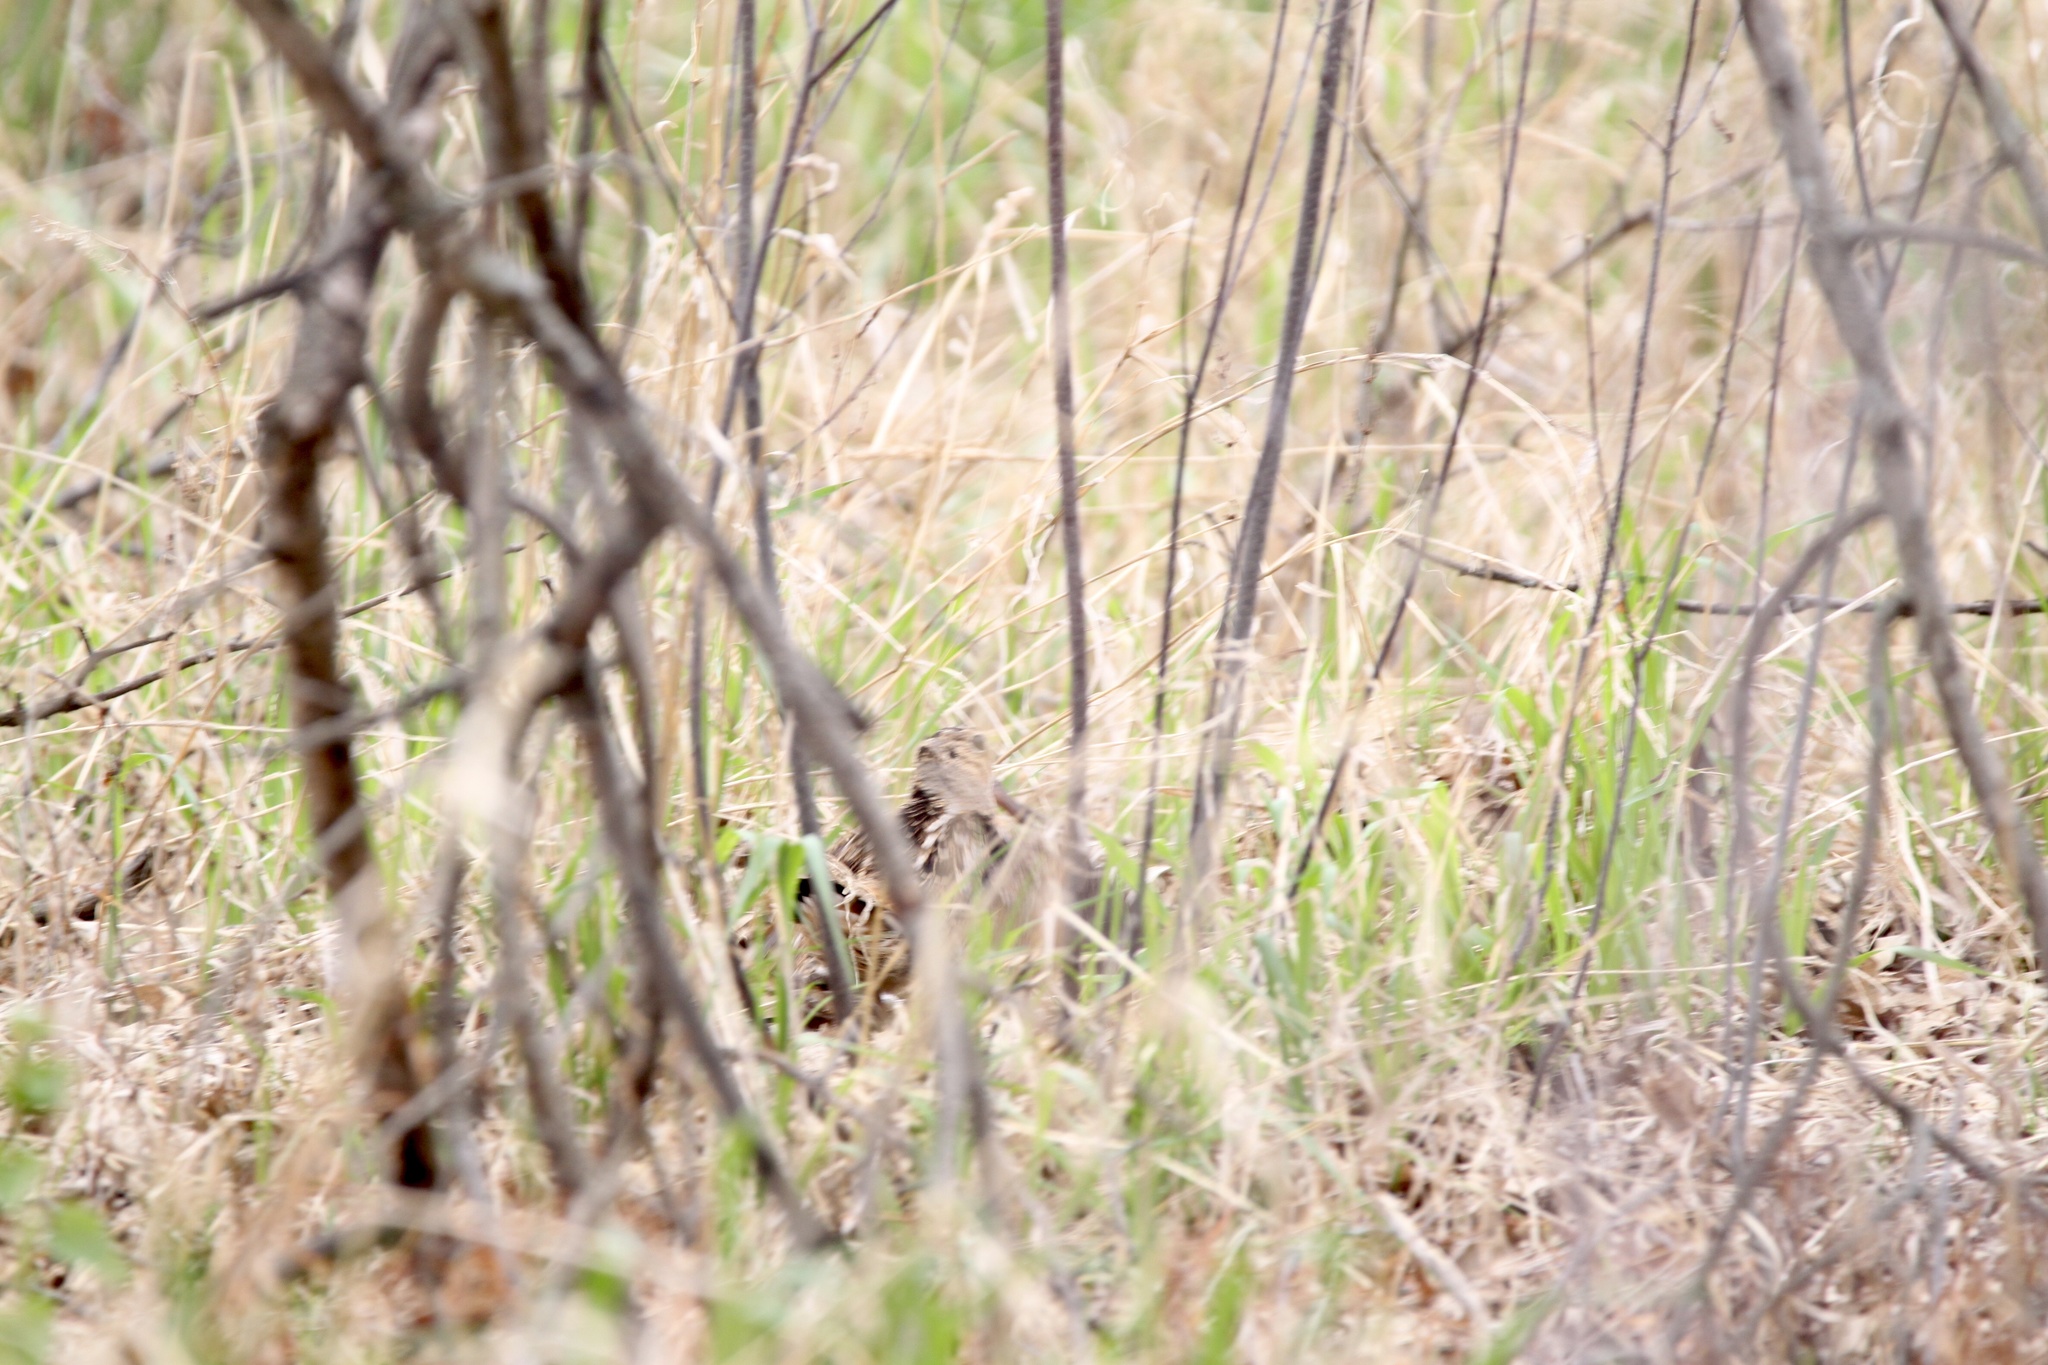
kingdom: Animalia
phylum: Chordata
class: Aves
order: Charadriiformes
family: Scolopacidae
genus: Scolopax
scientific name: Scolopax minor
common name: American woodcock
